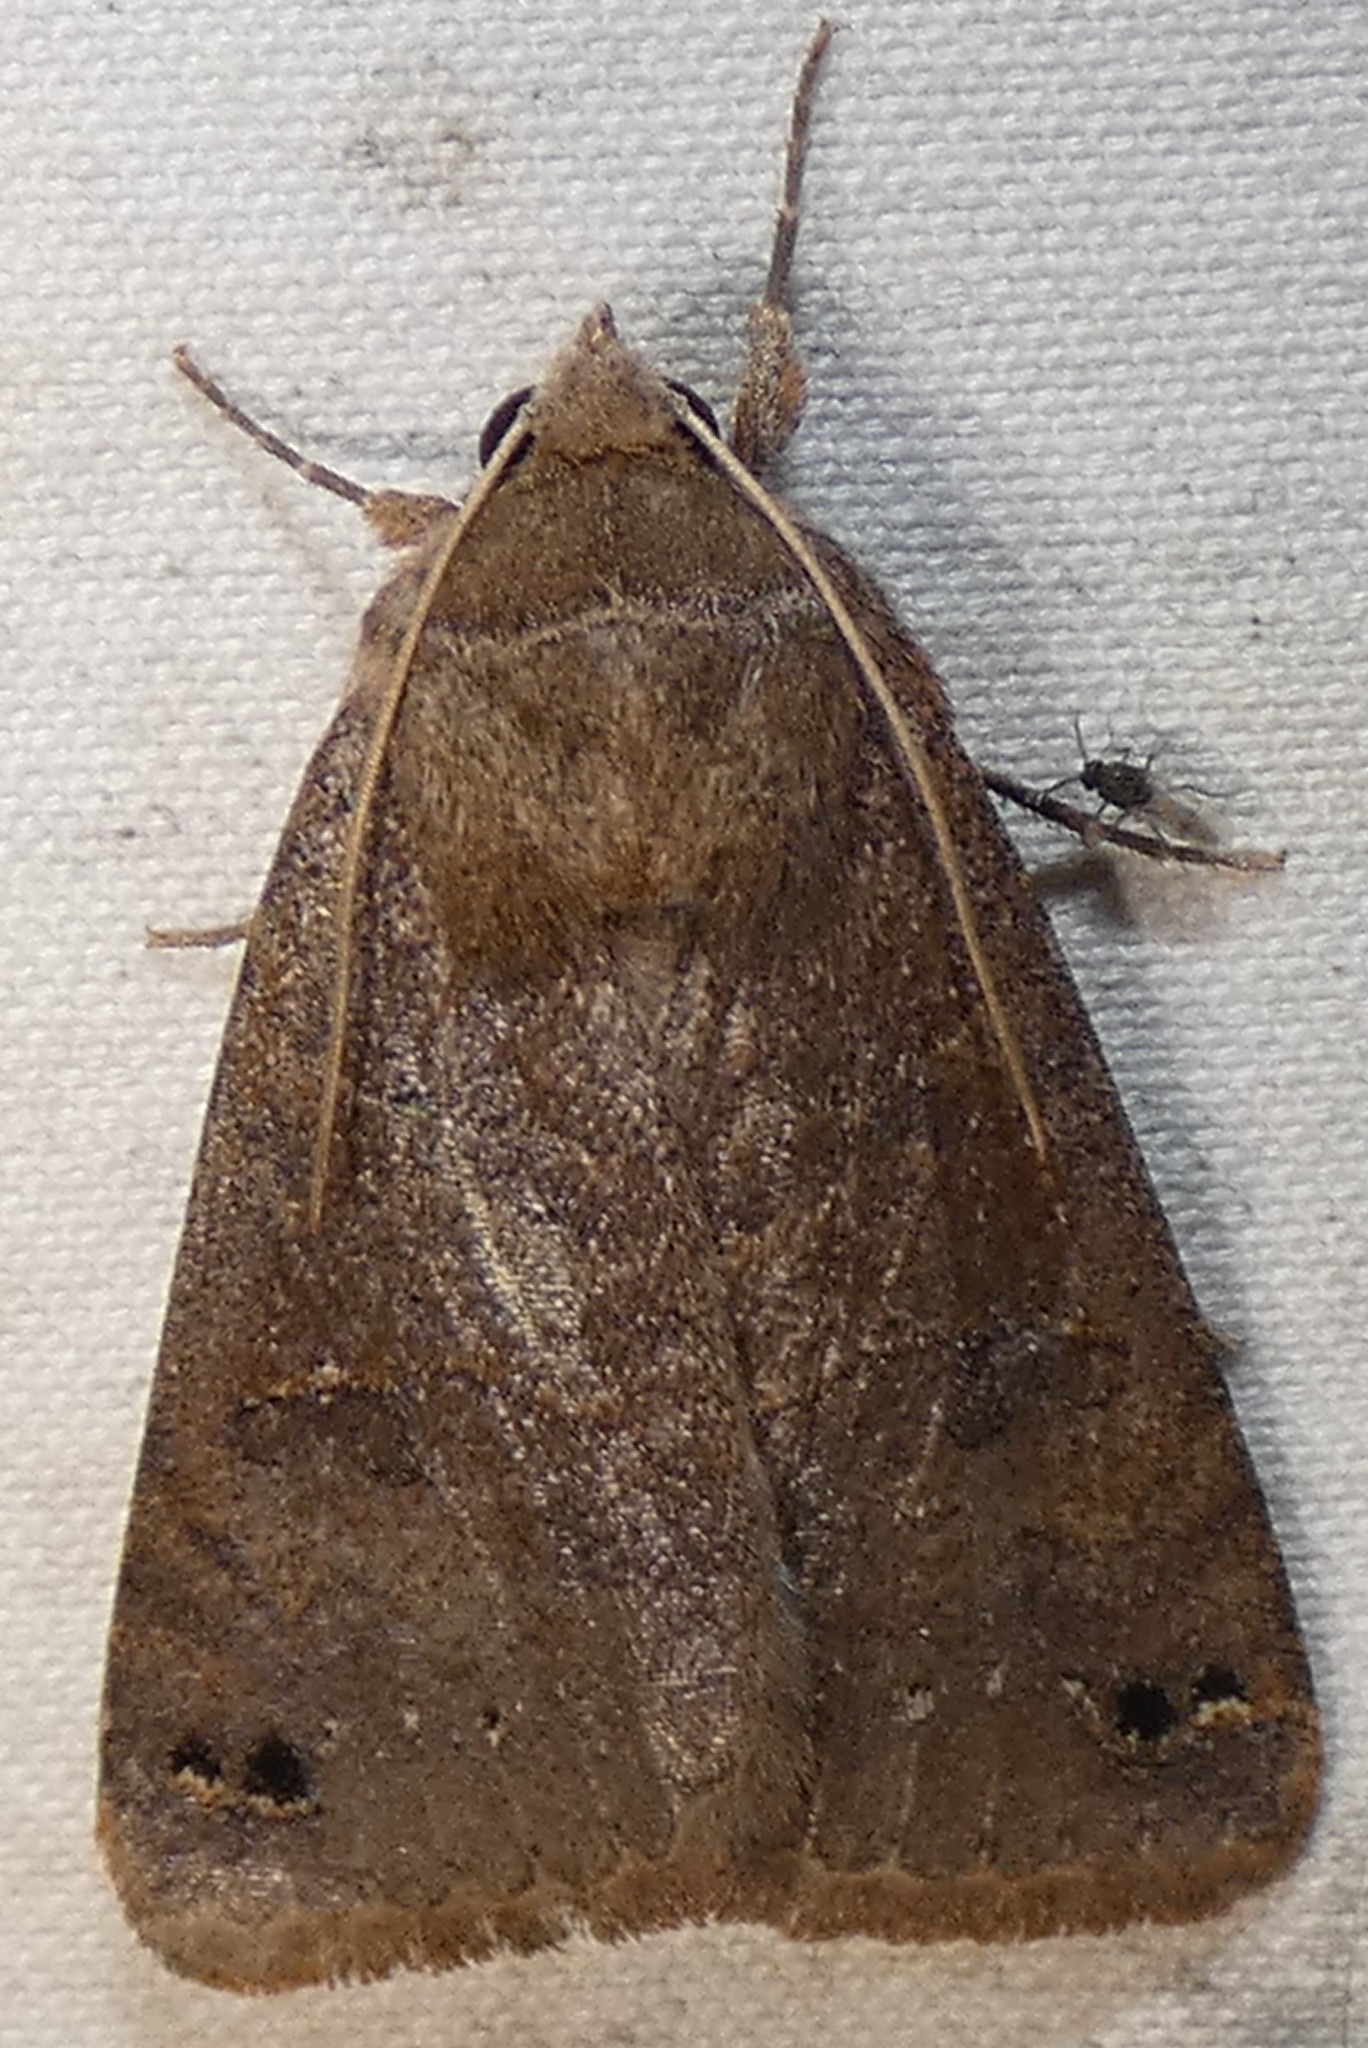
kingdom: Animalia
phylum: Arthropoda
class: Insecta
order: Lepidoptera
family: Erebidae
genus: Cissusa
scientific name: Cissusa spadix
